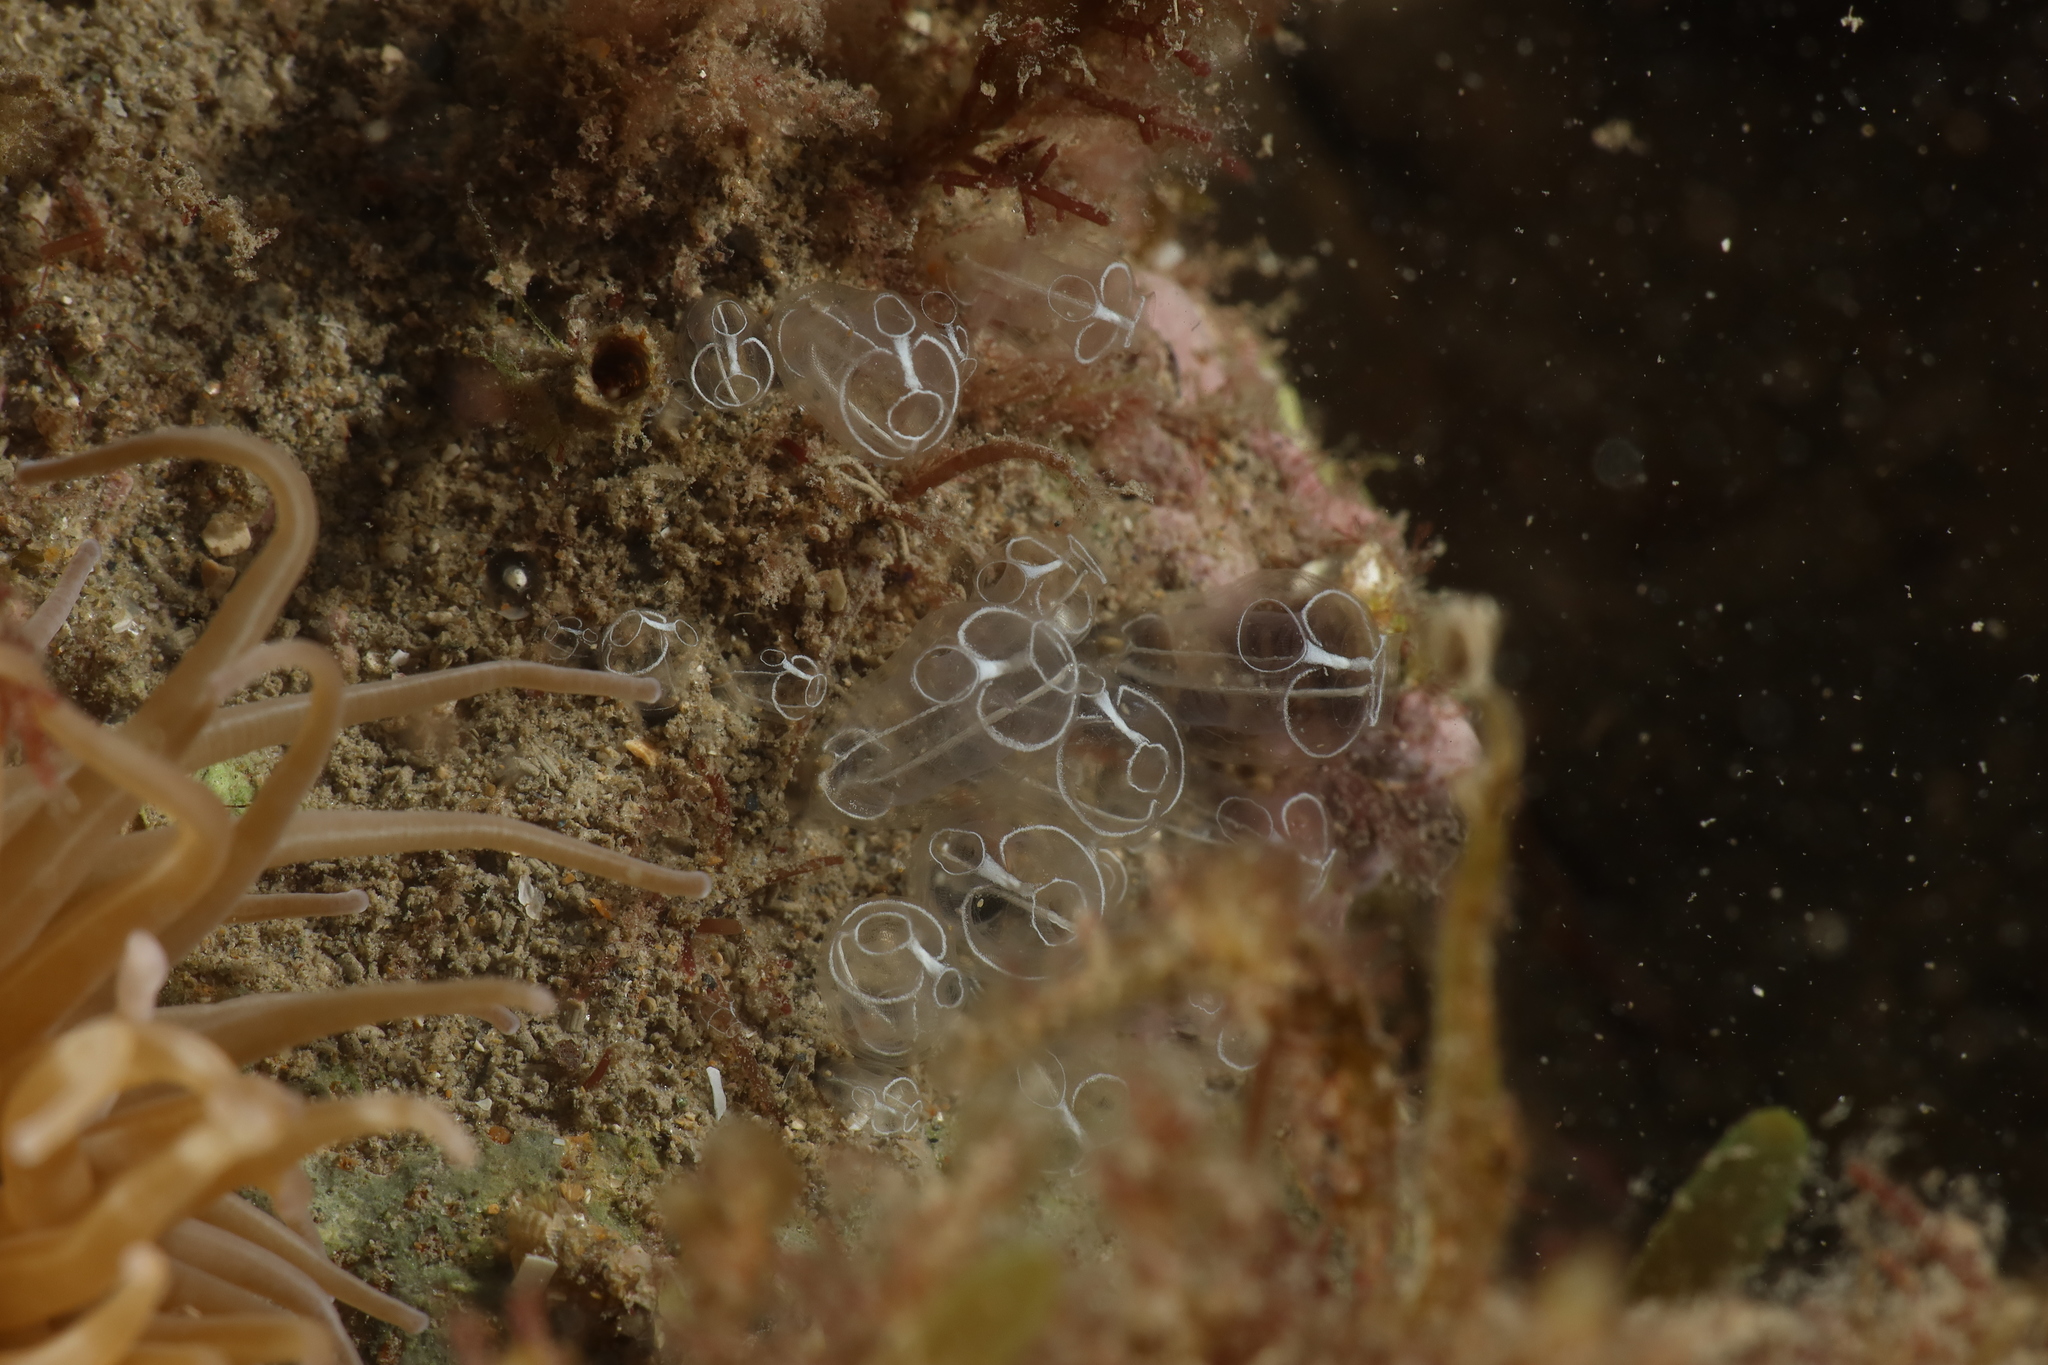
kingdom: Animalia
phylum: Chordata
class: Ascidiacea
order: Aplousobranchia
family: Clavelinidae
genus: Clavelina
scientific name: Clavelina lepadiformis
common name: Light bulb tunicate
